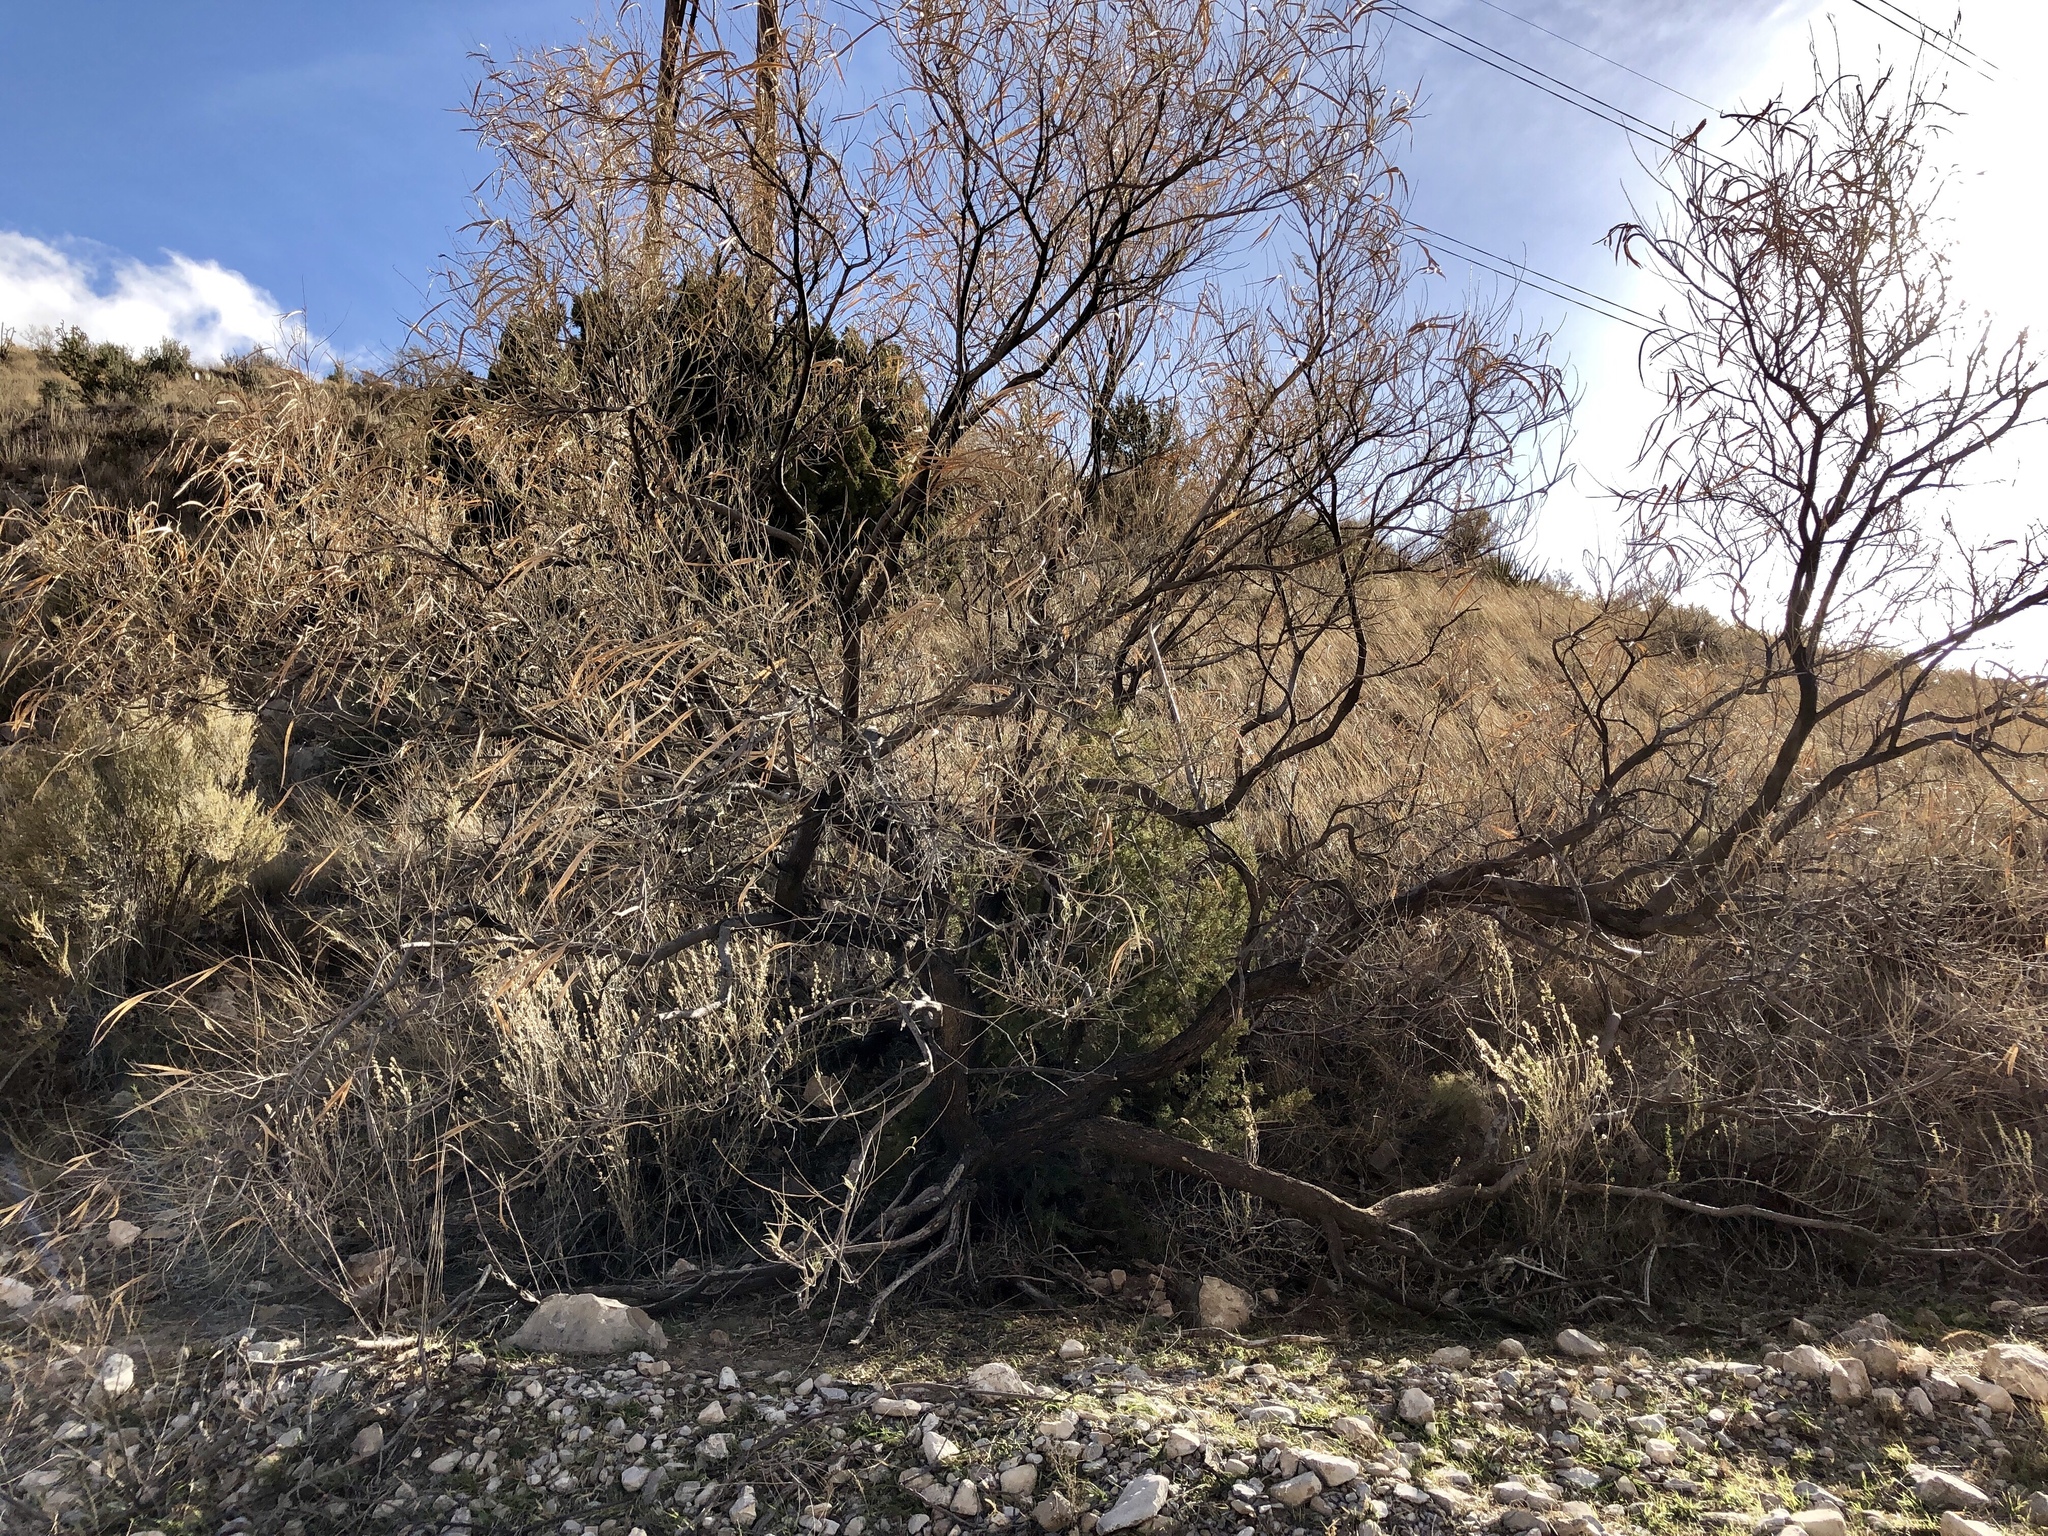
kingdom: Plantae
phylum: Tracheophyta
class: Magnoliopsida
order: Lamiales
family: Bignoniaceae
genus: Chilopsis
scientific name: Chilopsis linearis
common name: Desert-willow
